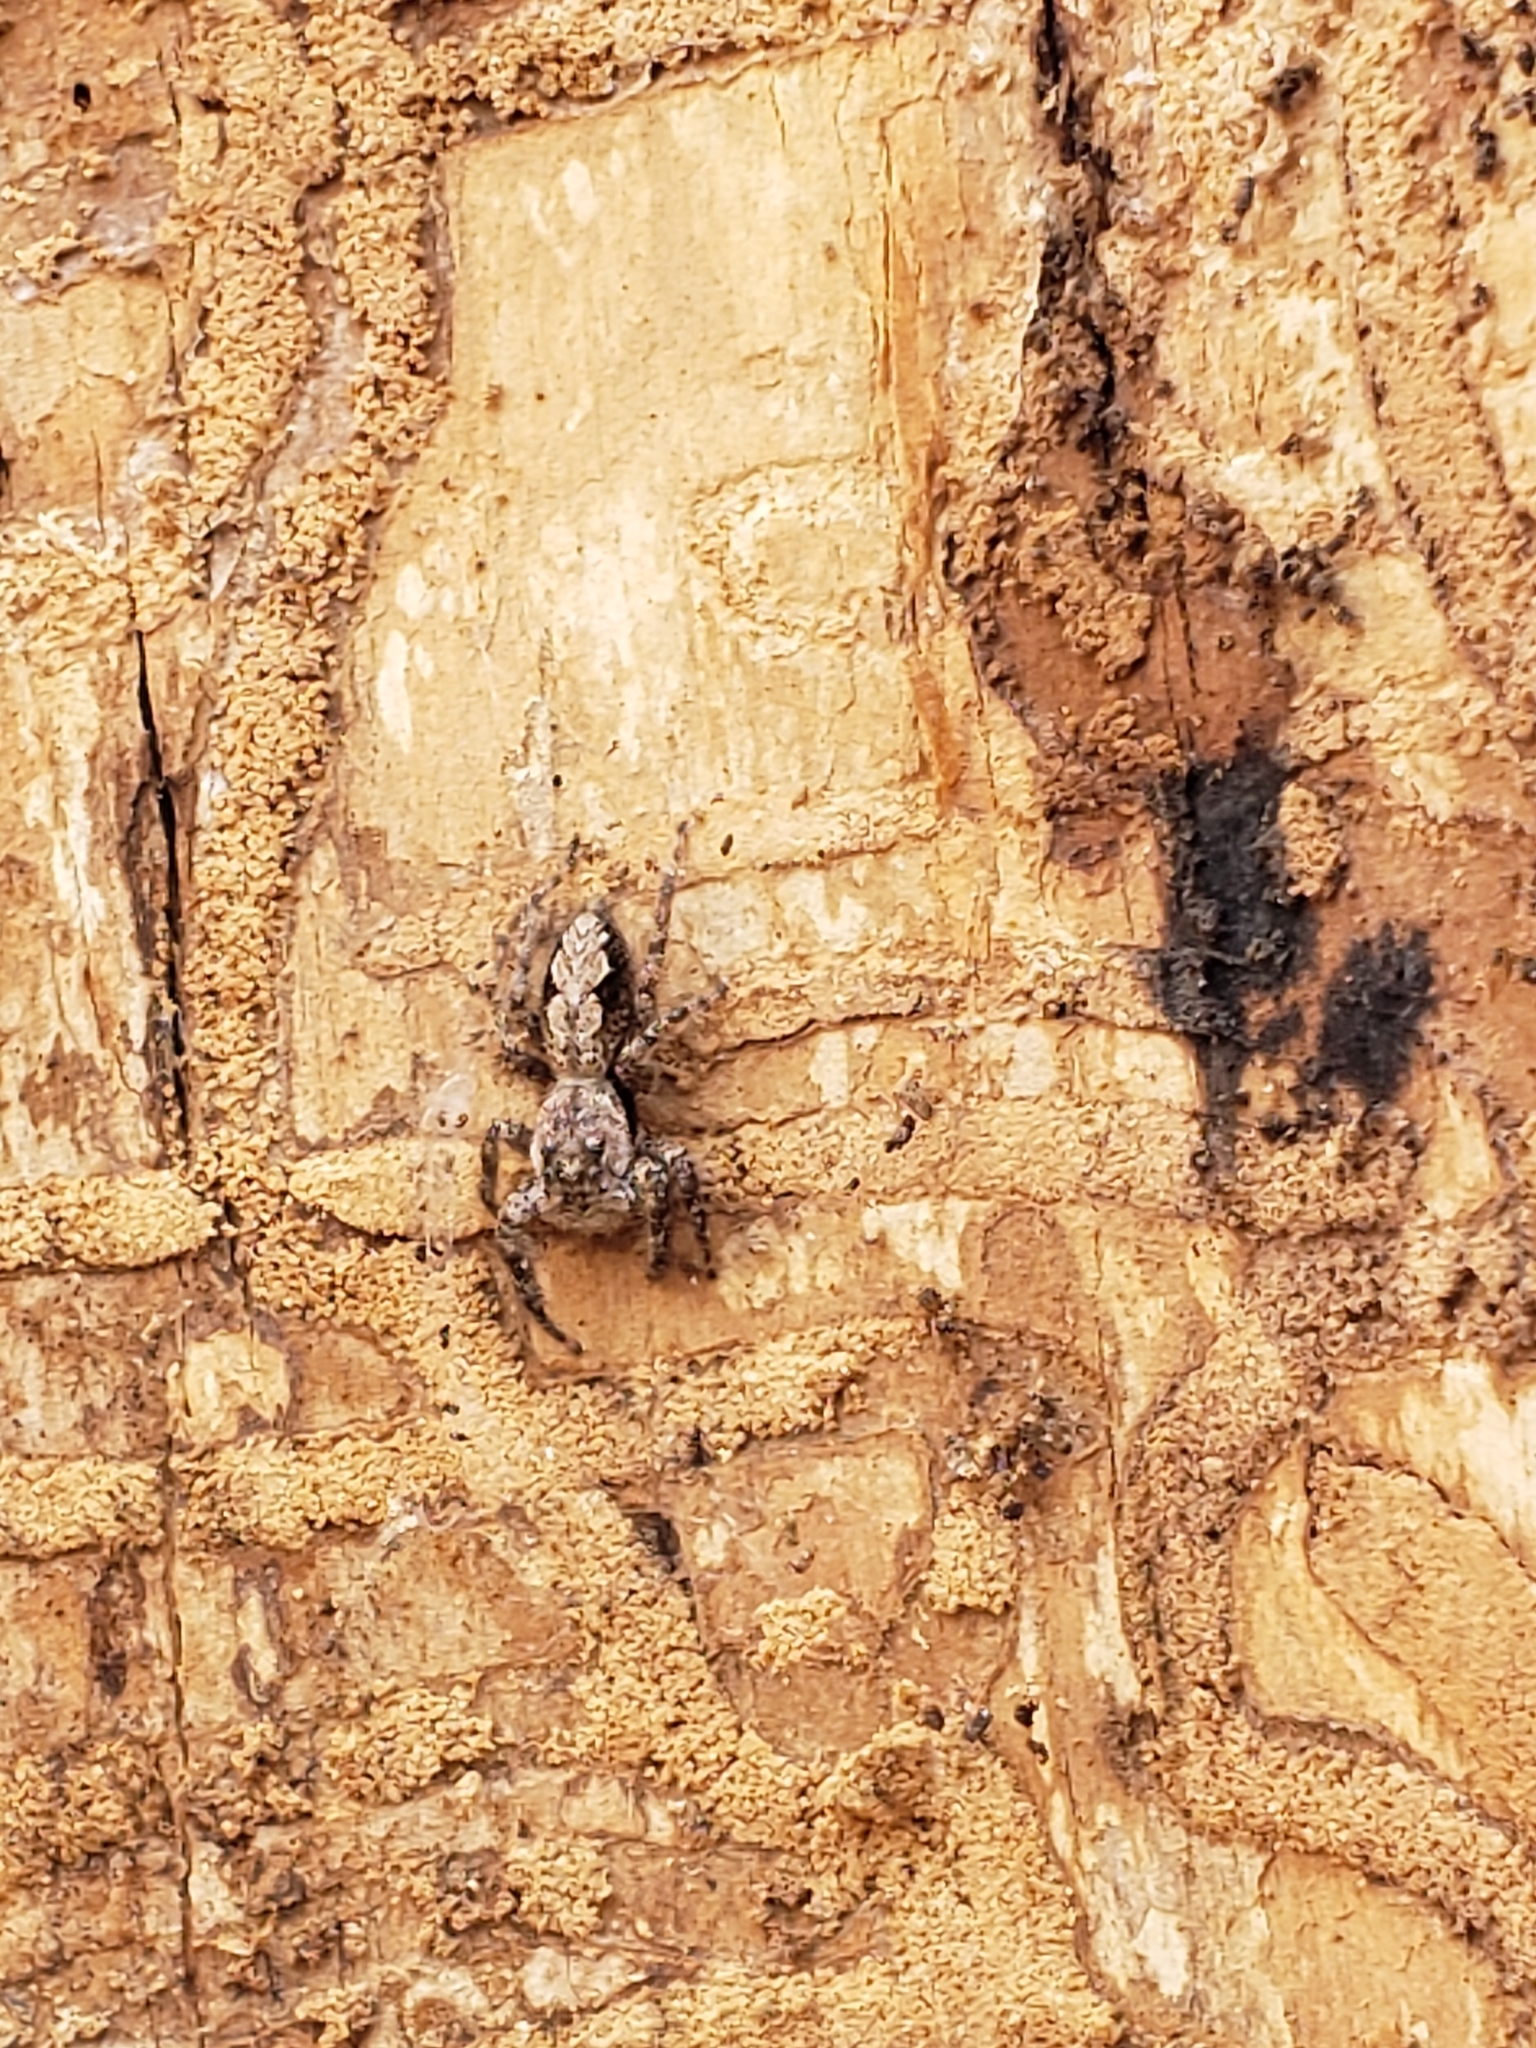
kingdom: Animalia
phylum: Arthropoda
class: Arachnida
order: Araneae
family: Salticidae
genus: Platycryptus
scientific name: Platycryptus undatus
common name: Tan jumping spider
